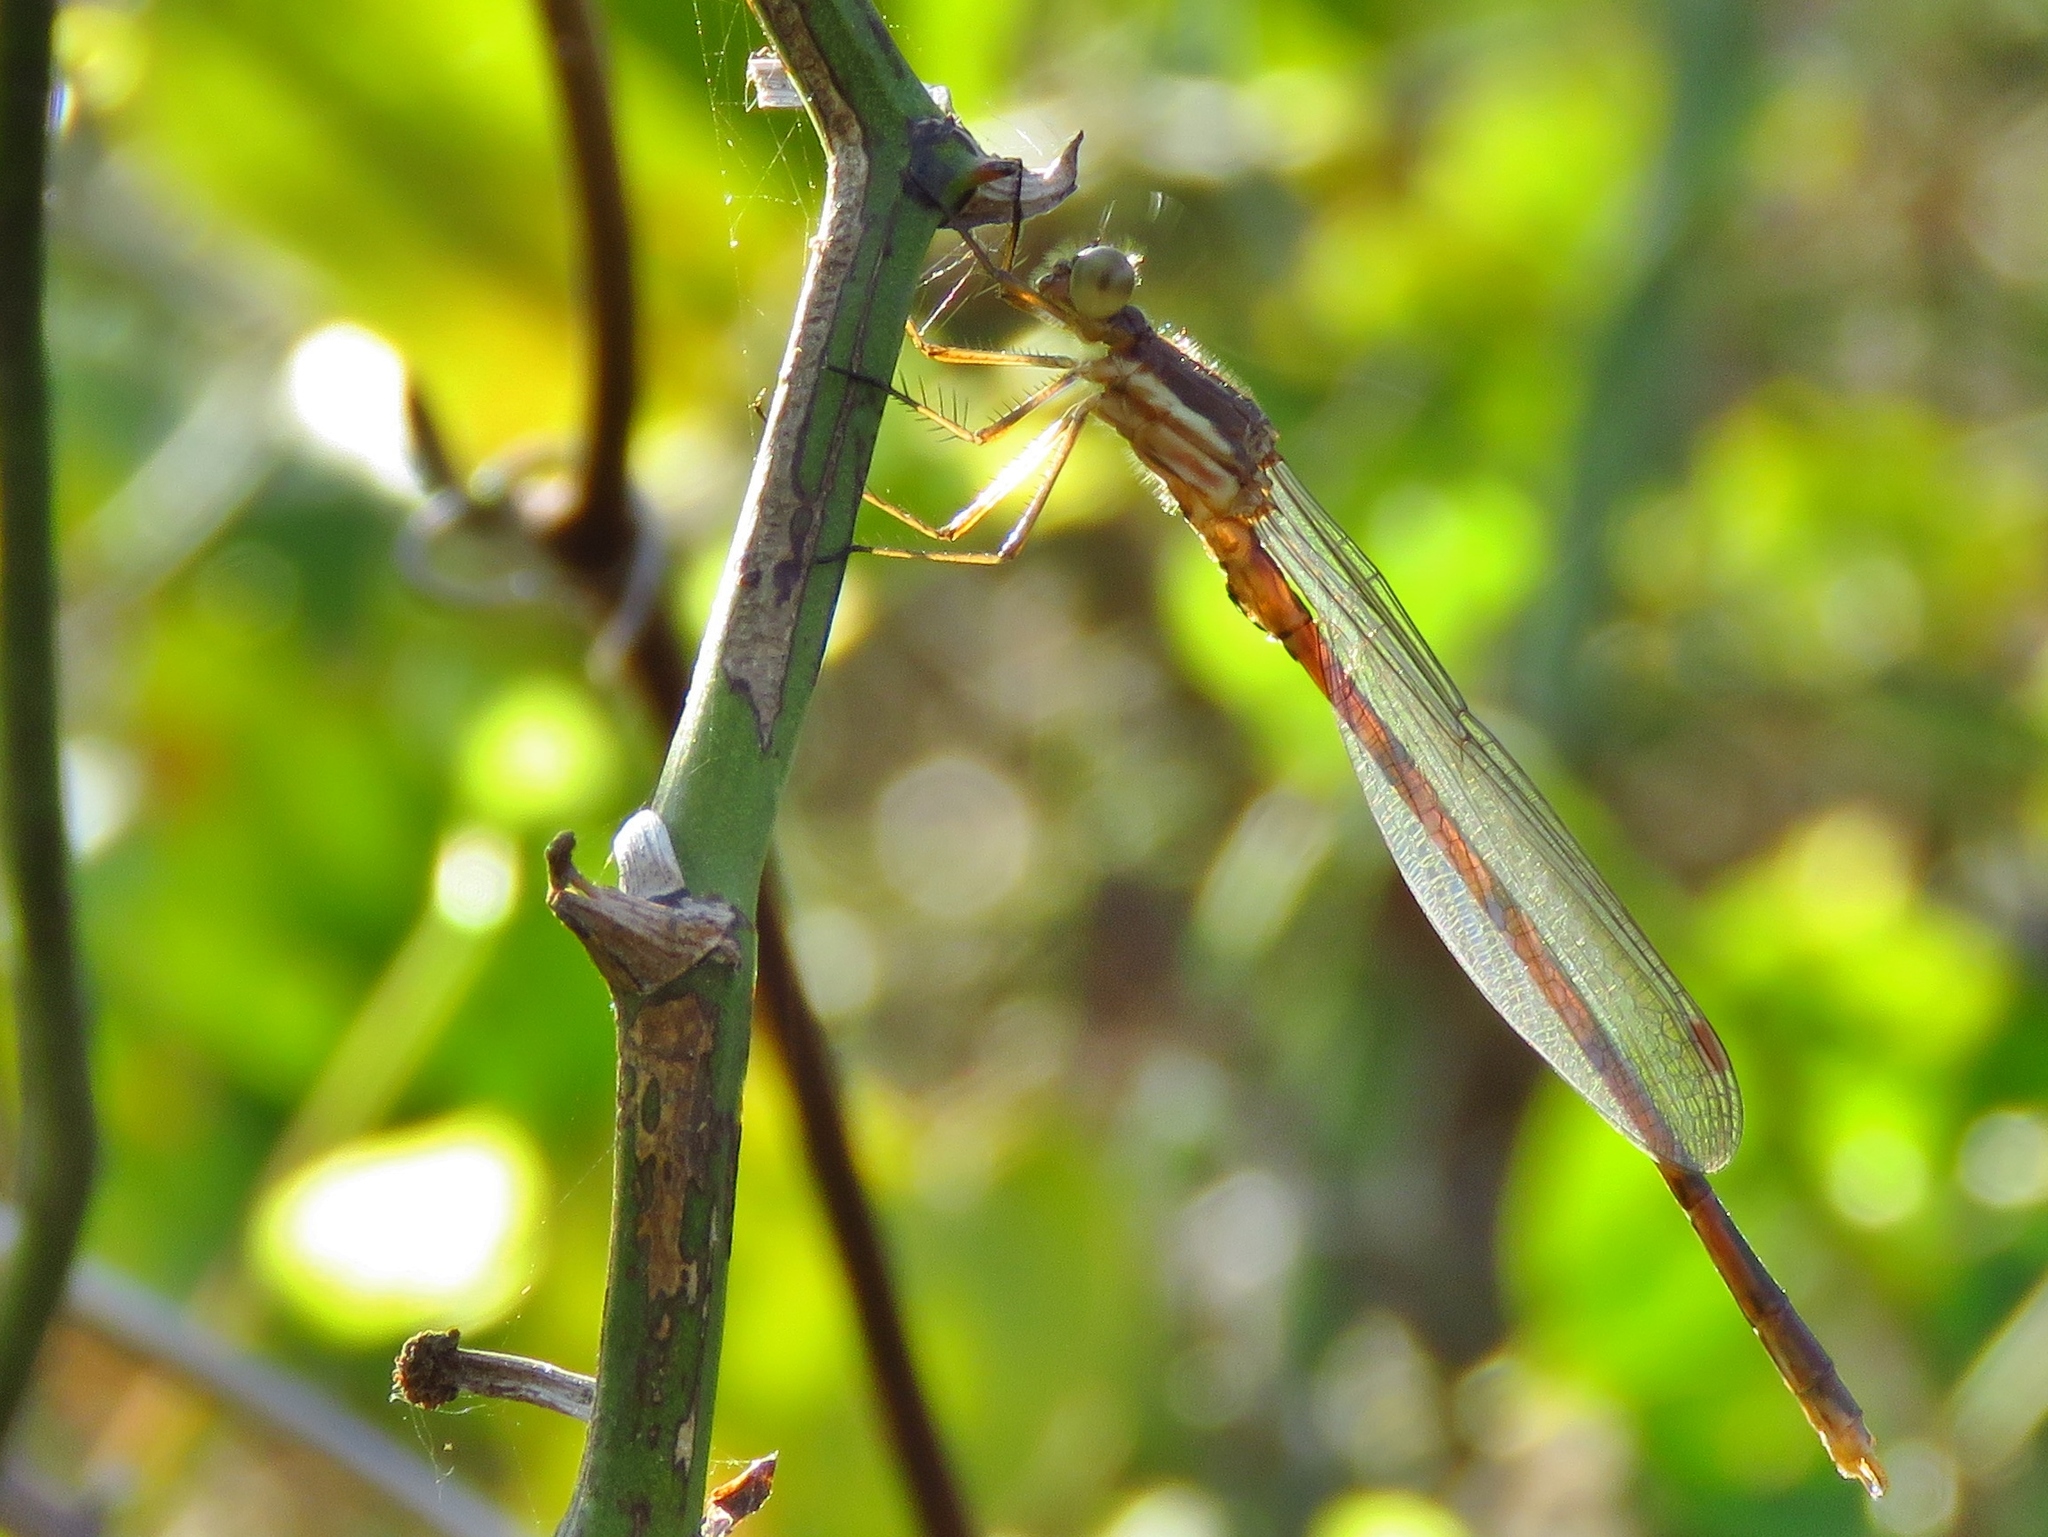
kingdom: Animalia
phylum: Arthropoda
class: Insecta
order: Odonata
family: Lestidae
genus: Lestes
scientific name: Lestes australis
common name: Southern spreadwing
